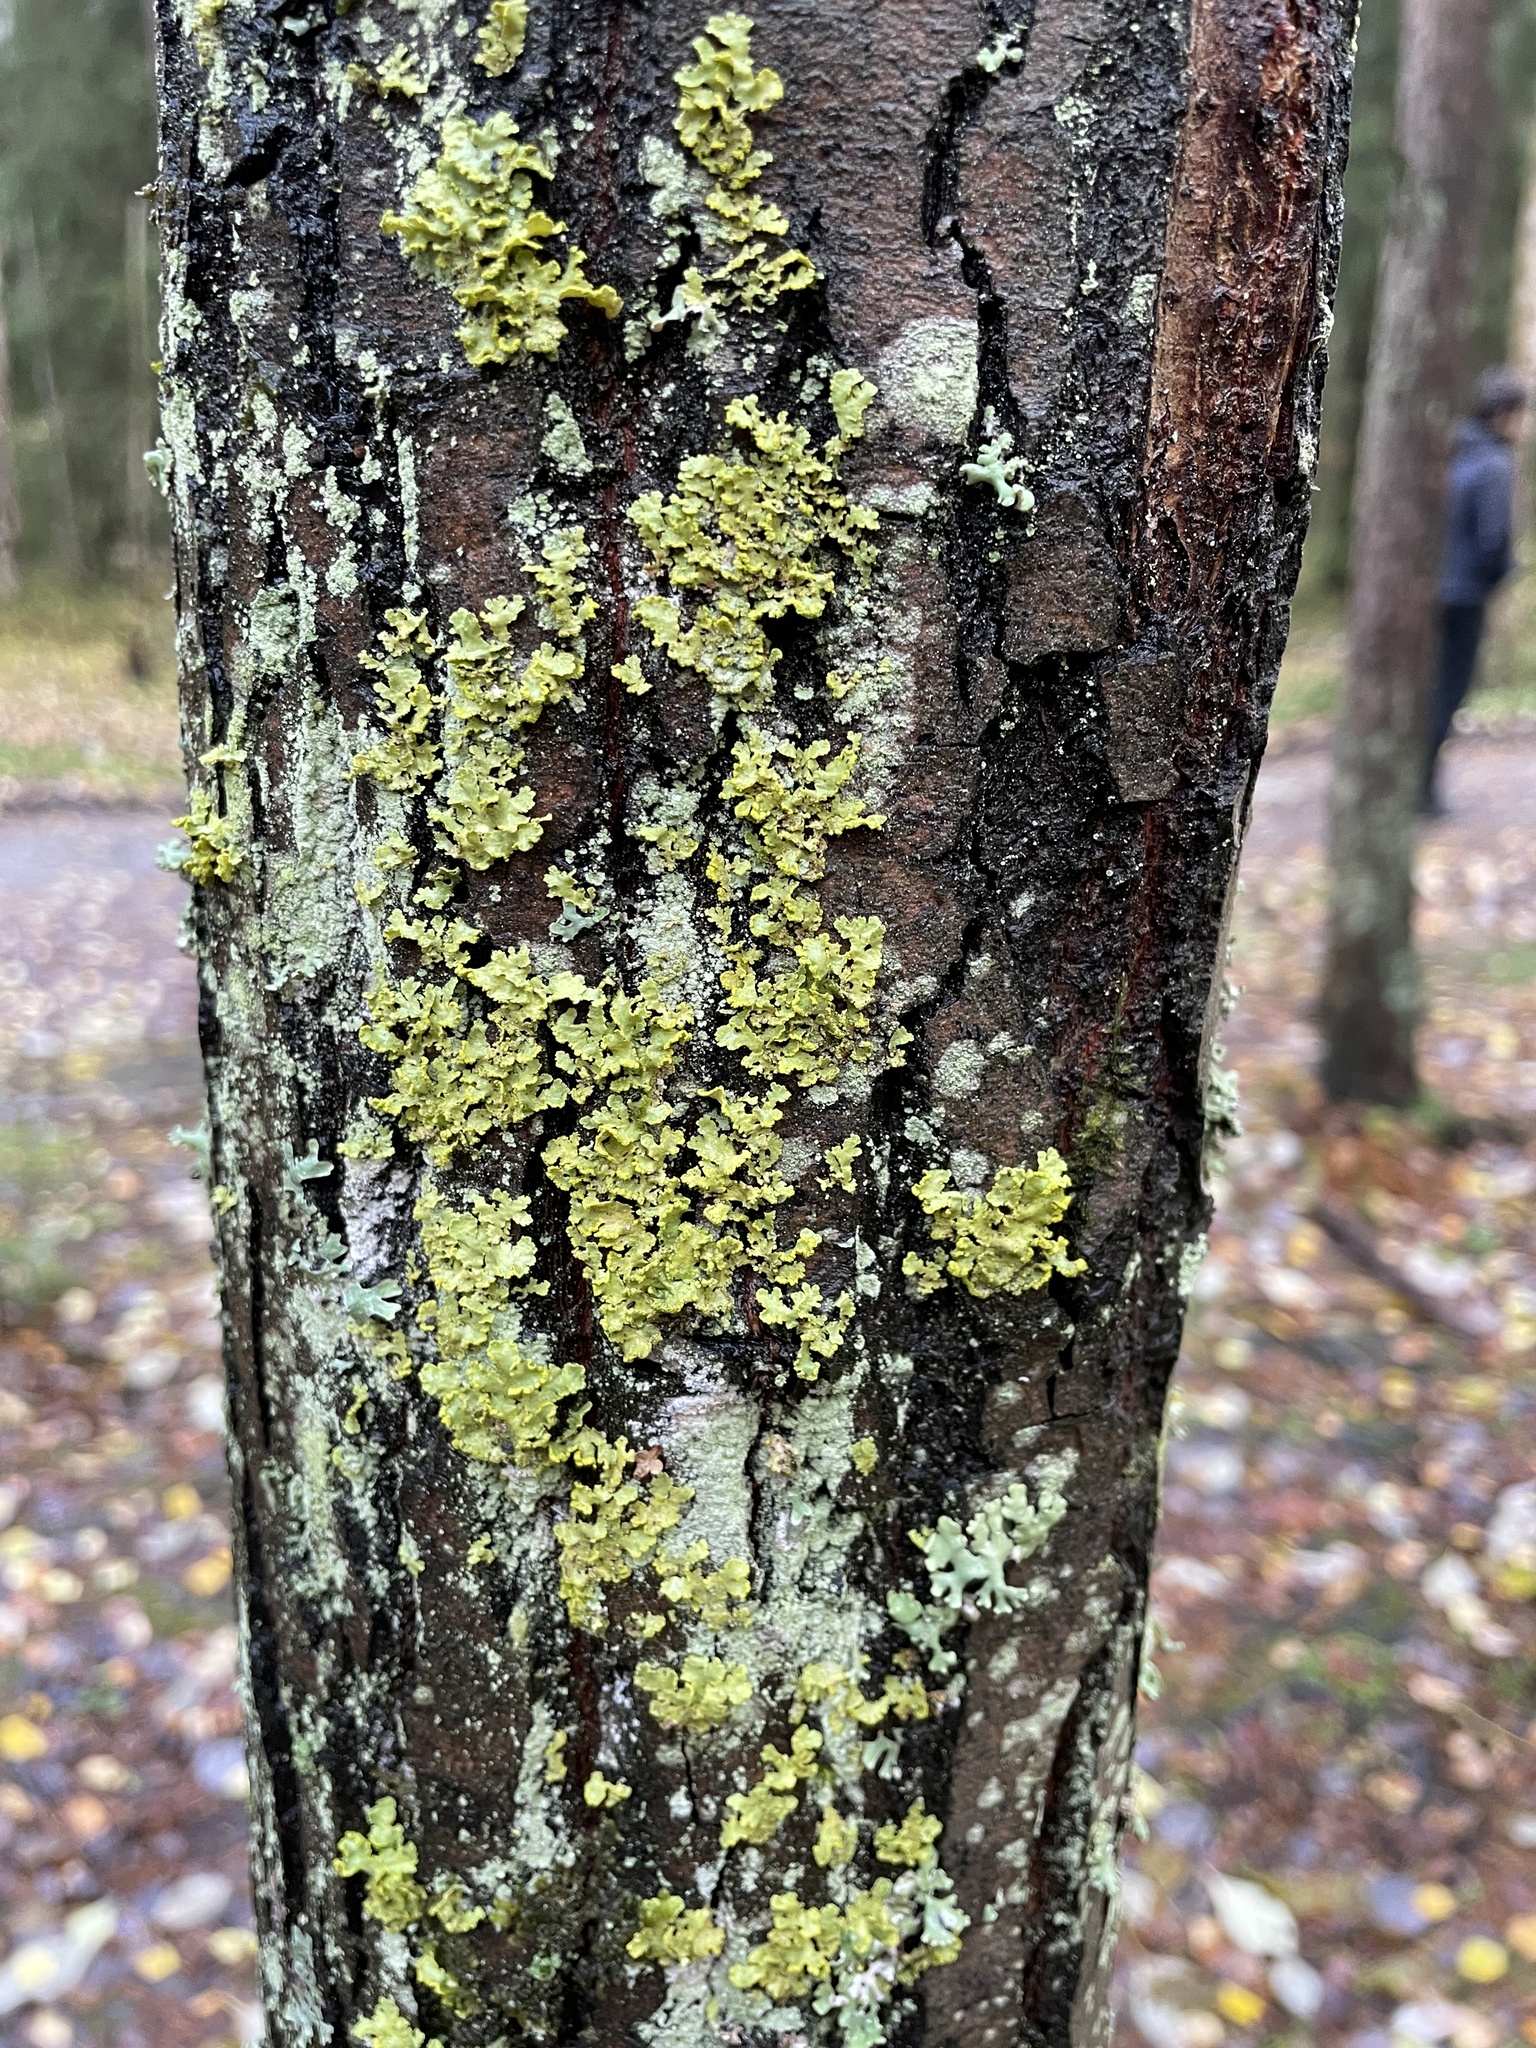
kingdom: Fungi
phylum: Ascomycota
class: Lecanoromycetes
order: Lecanorales
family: Parmeliaceae
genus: Vulpicida
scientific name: Vulpicida pinastri
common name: Powdered sunshine lichen
